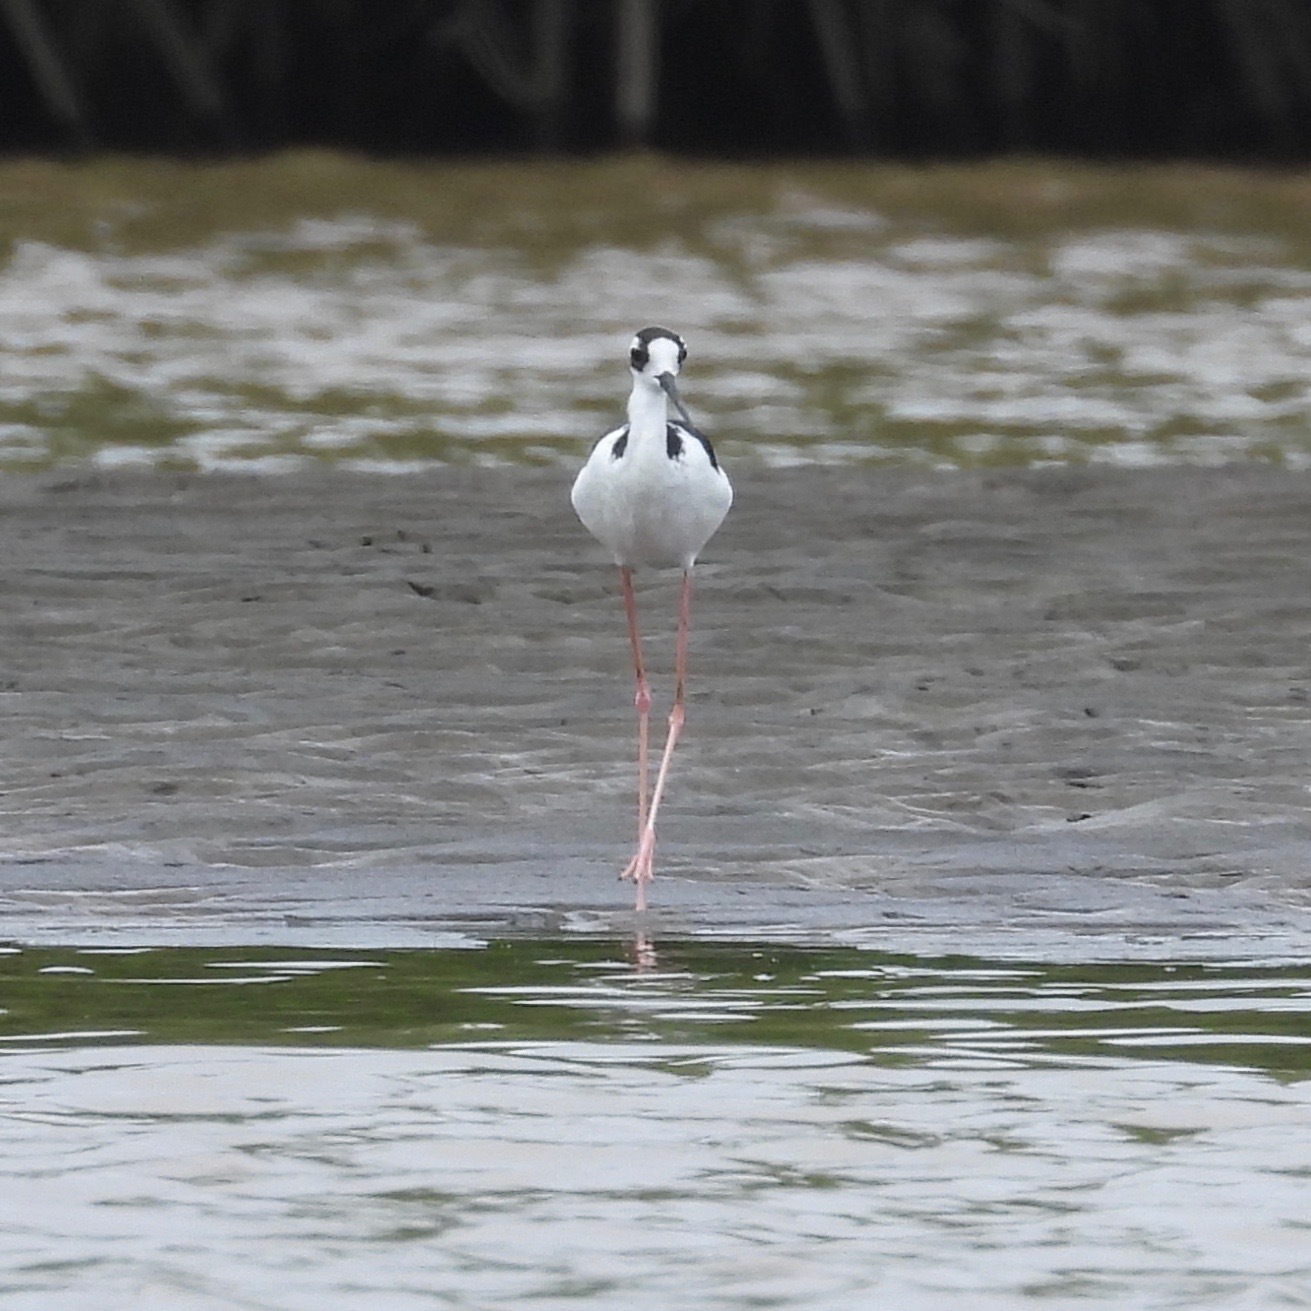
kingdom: Animalia
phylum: Chordata
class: Aves
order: Charadriiformes
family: Recurvirostridae
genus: Himantopus
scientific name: Himantopus mexicanus
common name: Black-necked stilt
